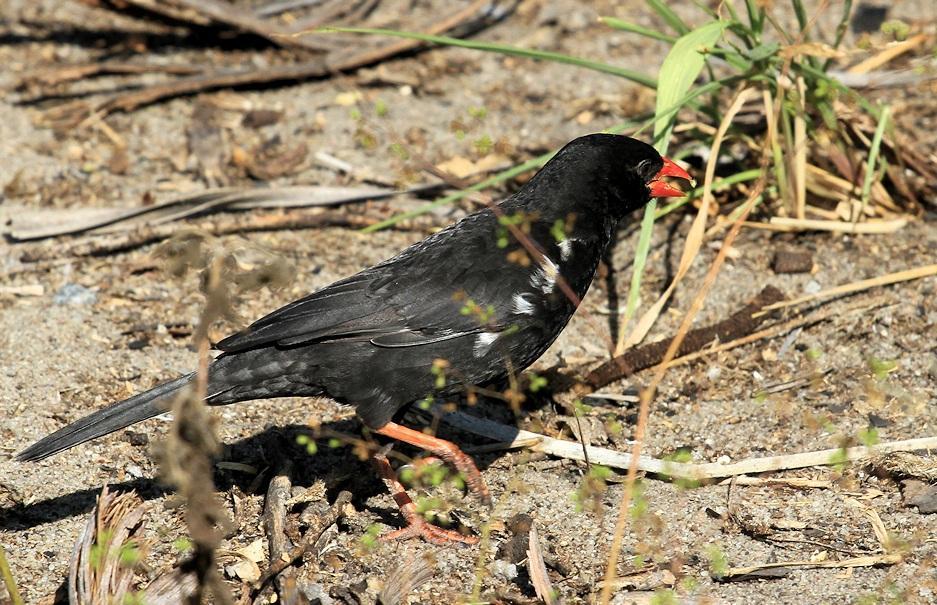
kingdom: Animalia
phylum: Chordata
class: Aves
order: Passeriformes
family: Ploceidae
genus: Bubalornis
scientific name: Bubalornis niger
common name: Red-billed buffalo weaver
